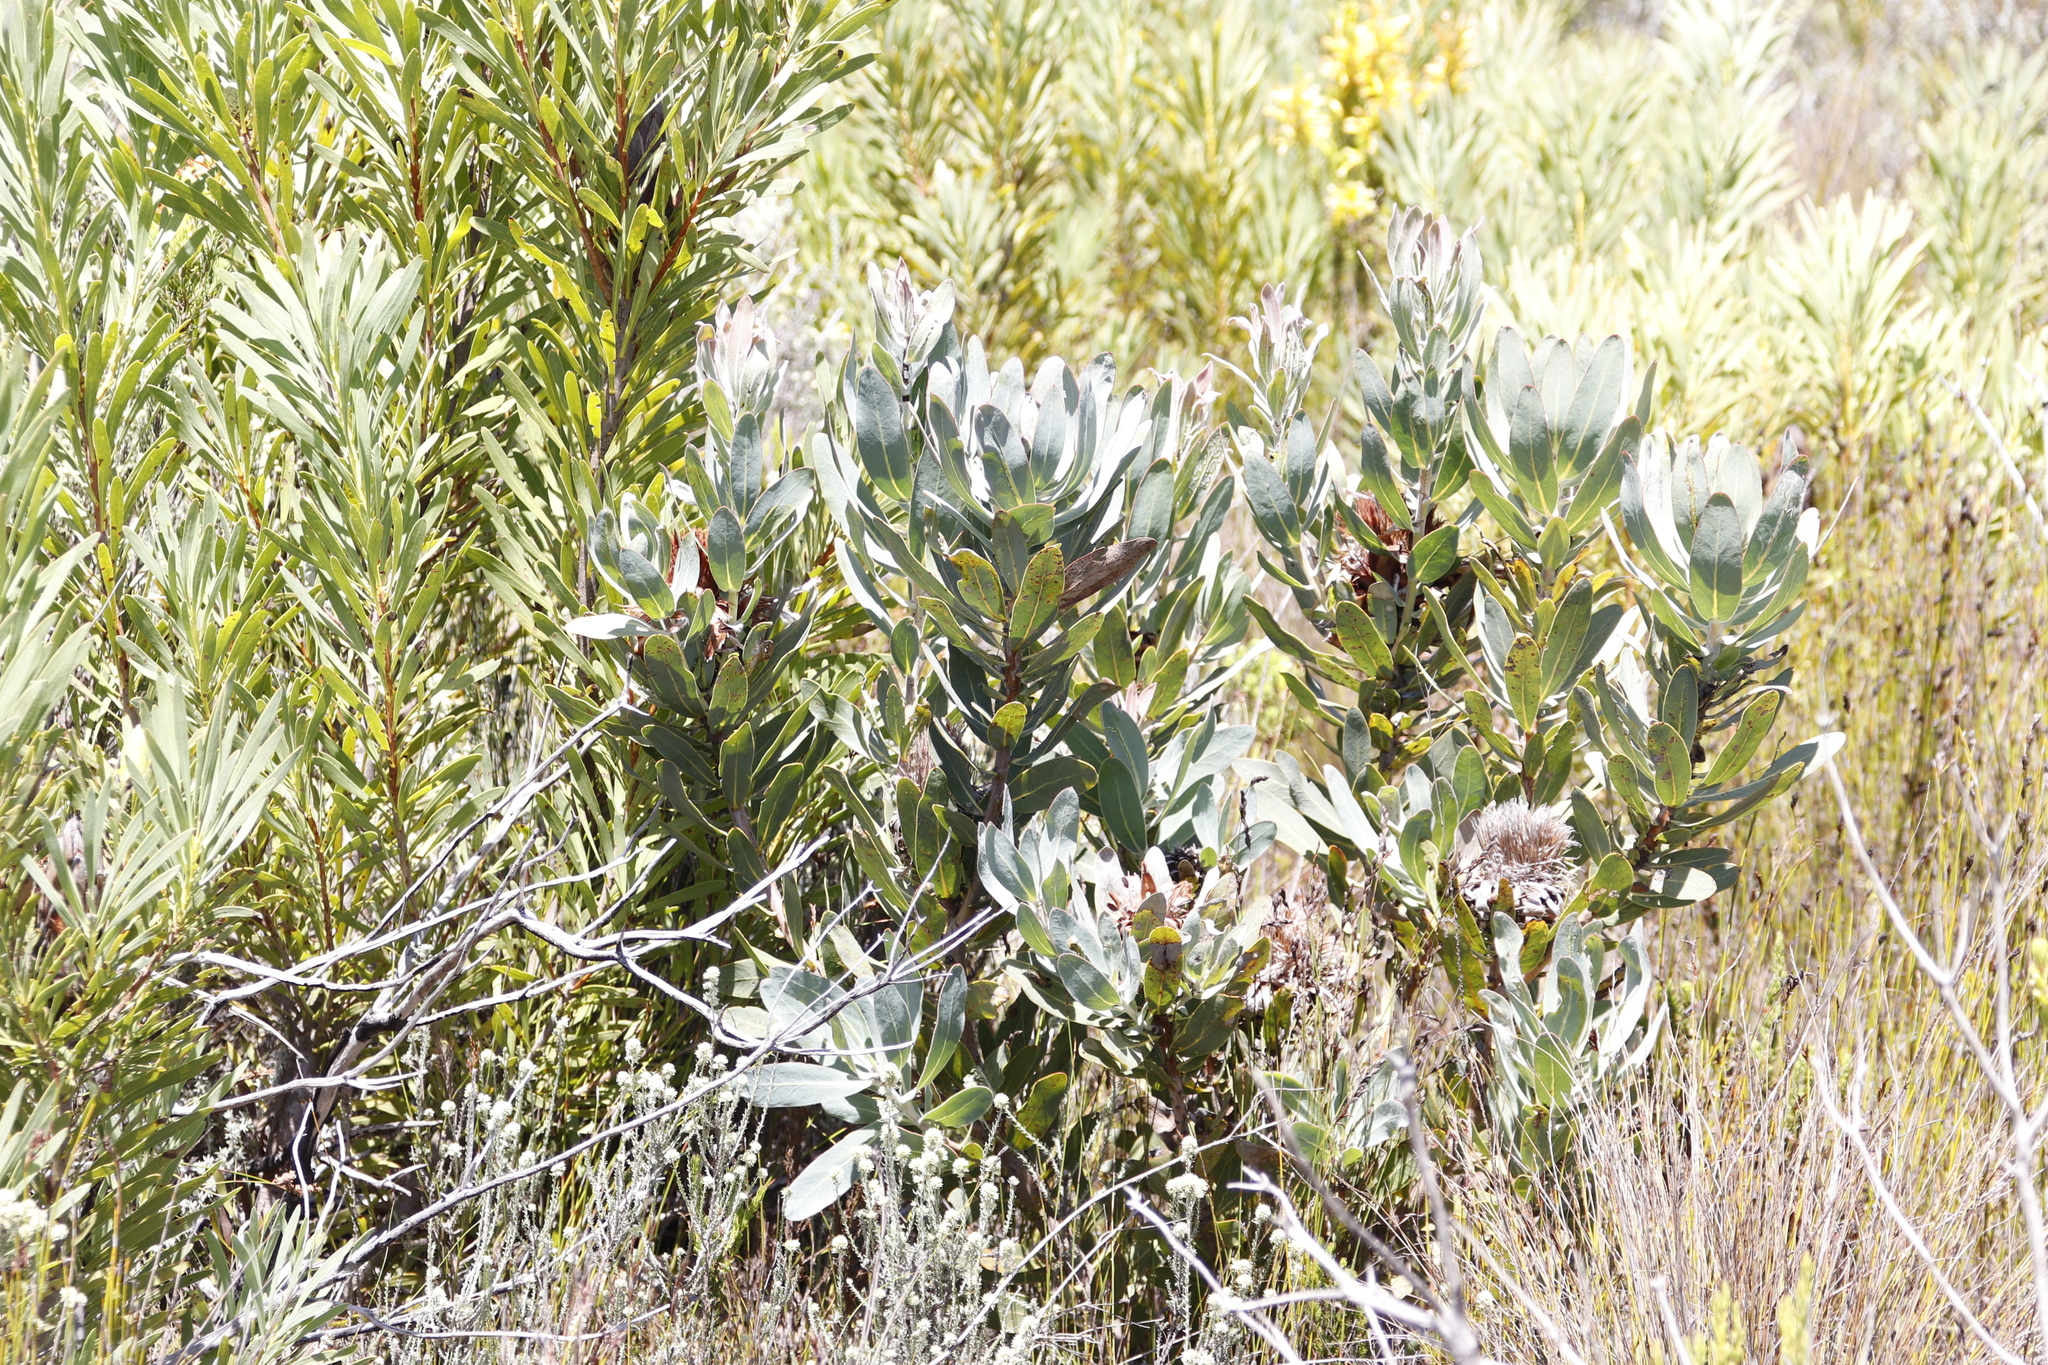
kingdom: Plantae
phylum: Tracheophyta
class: Magnoliopsida
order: Proteales
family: Proteaceae
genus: Protea
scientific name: Protea laurifolia
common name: Grey-leaf sugarbsh
